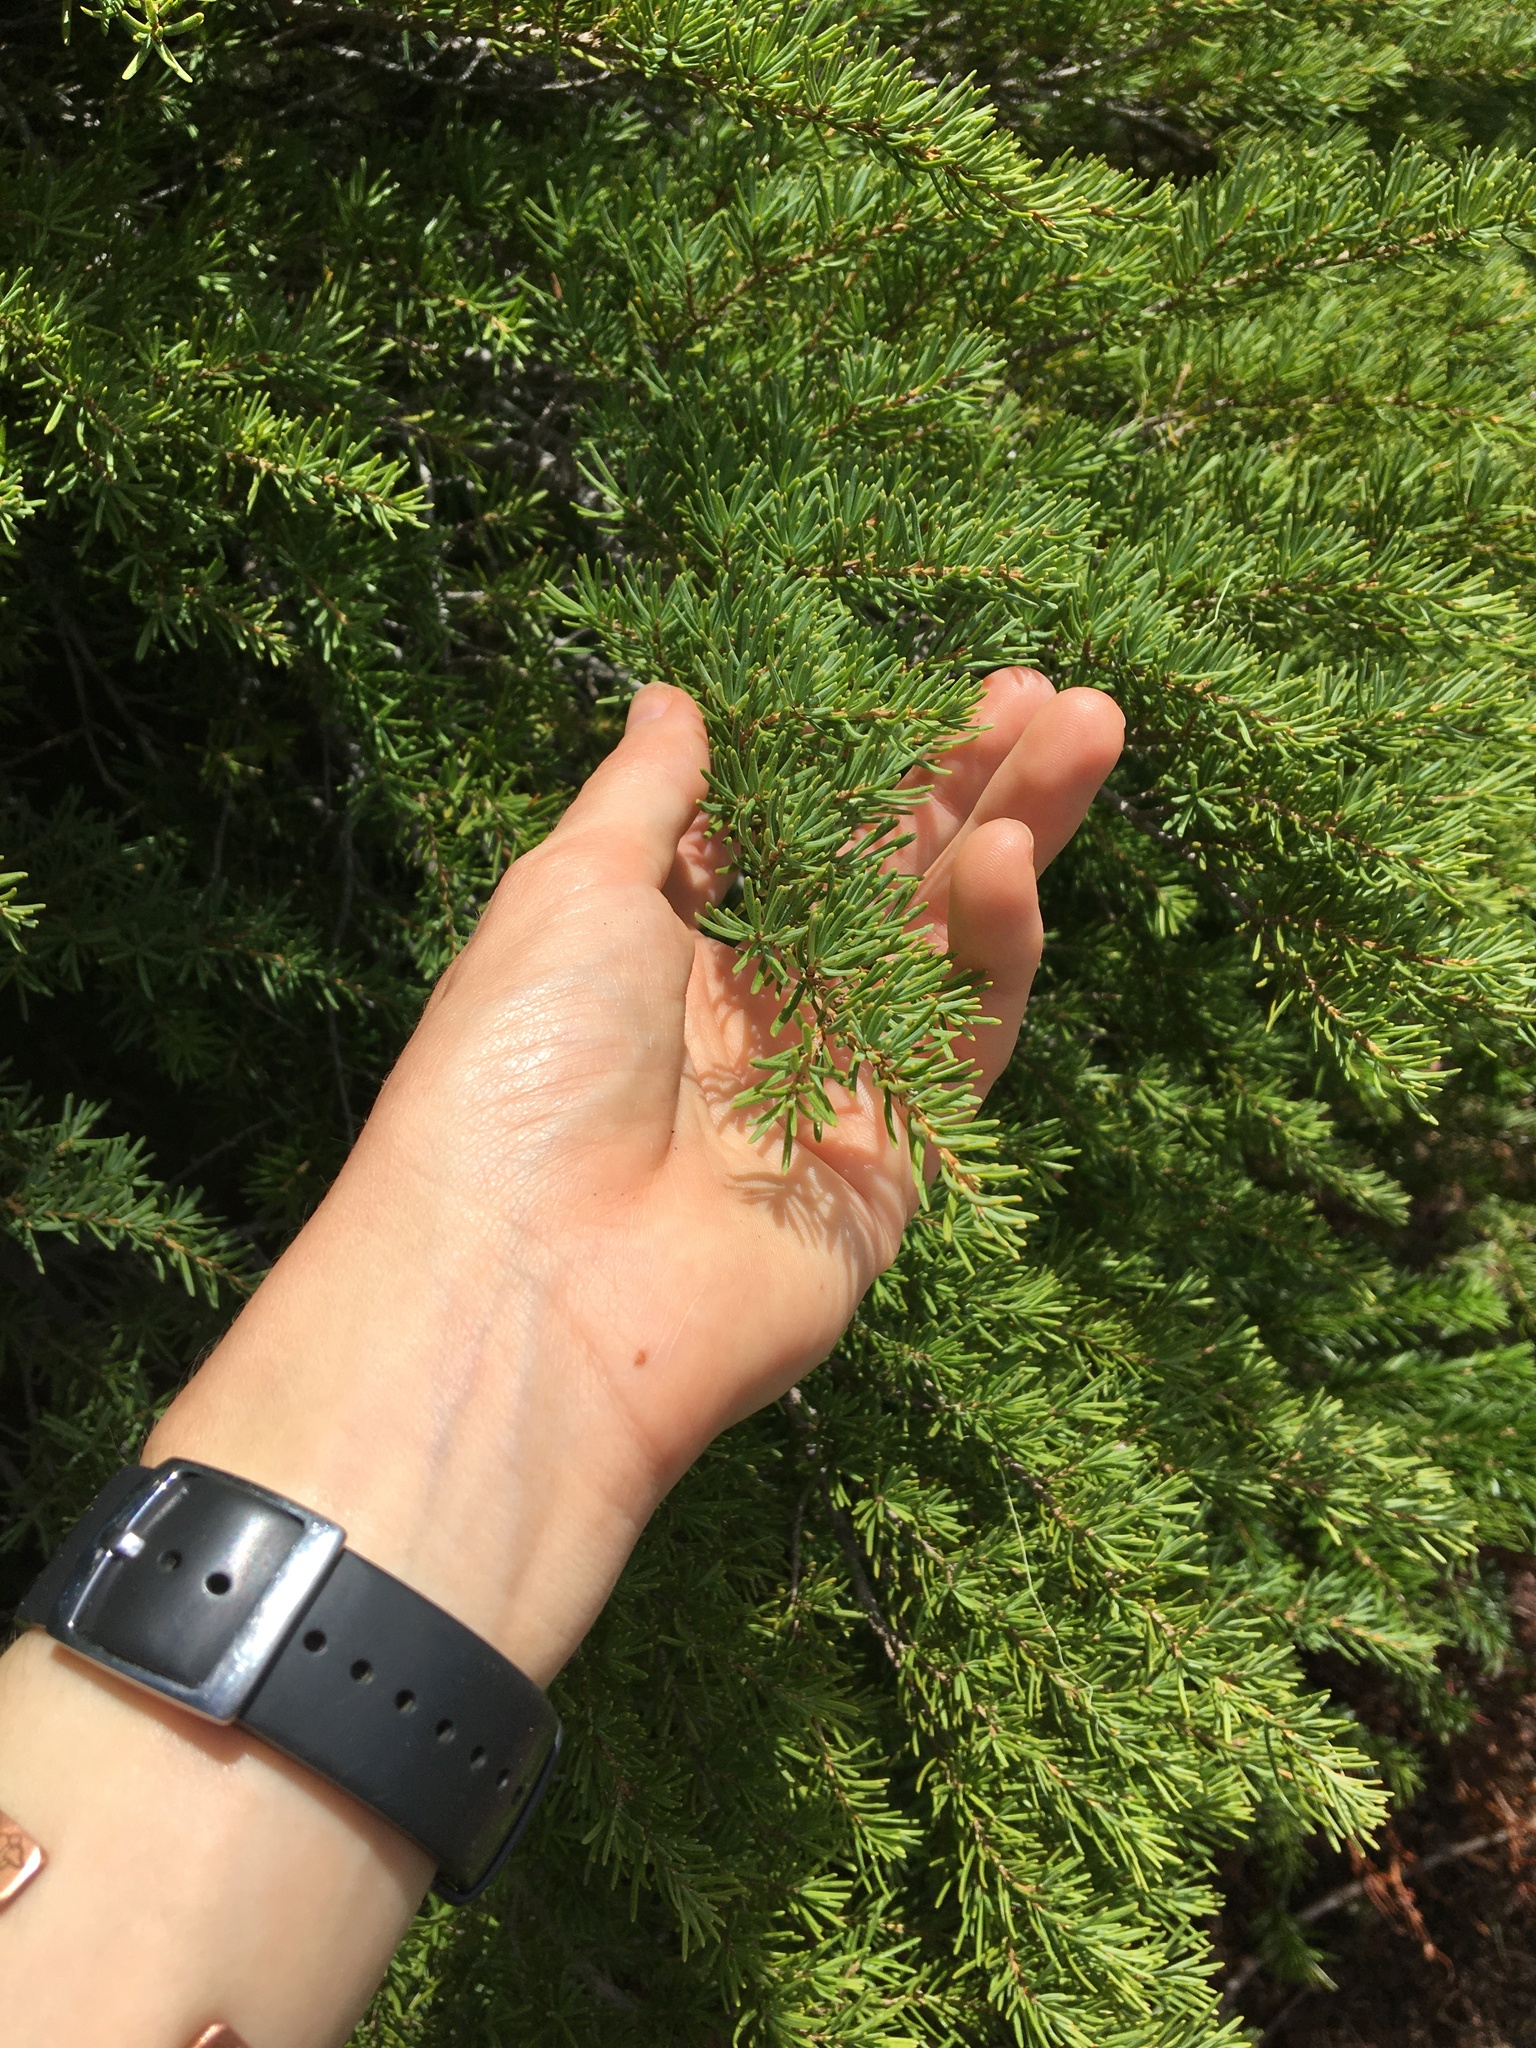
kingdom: Plantae
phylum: Tracheophyta
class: Pinopsida
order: Pinales
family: Pinaceae
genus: Tsuga
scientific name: Tsuga mertensiana
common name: Mountain hemlock
